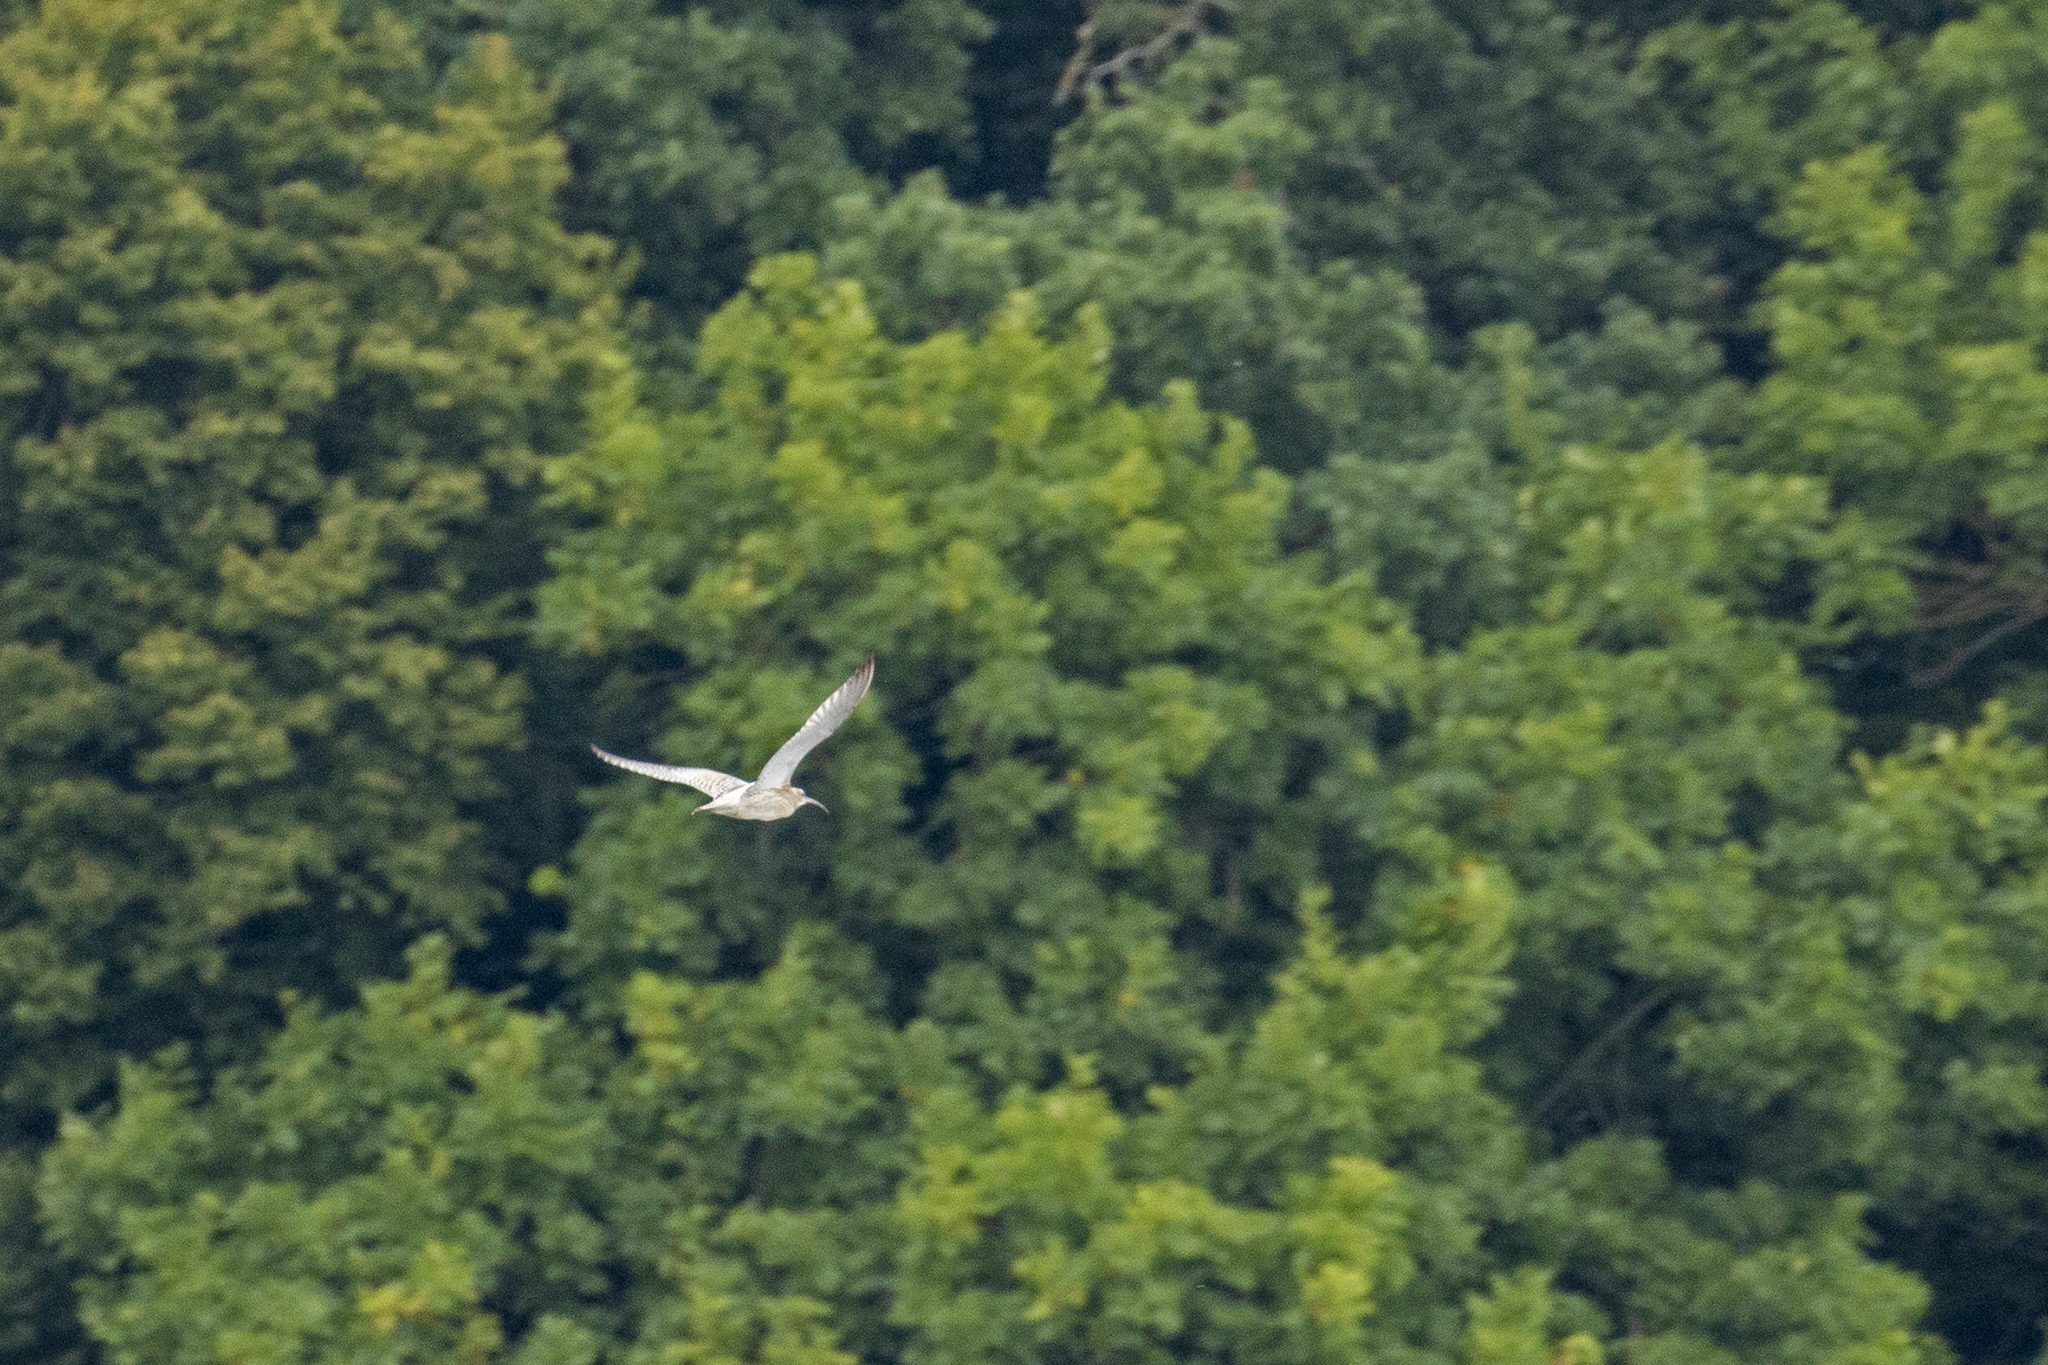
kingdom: Animalia
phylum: Chordata
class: Aves
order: Charadriiformes
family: Scolopacidae
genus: Numenius
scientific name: Numenius arquata
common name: Eurasian curlew
